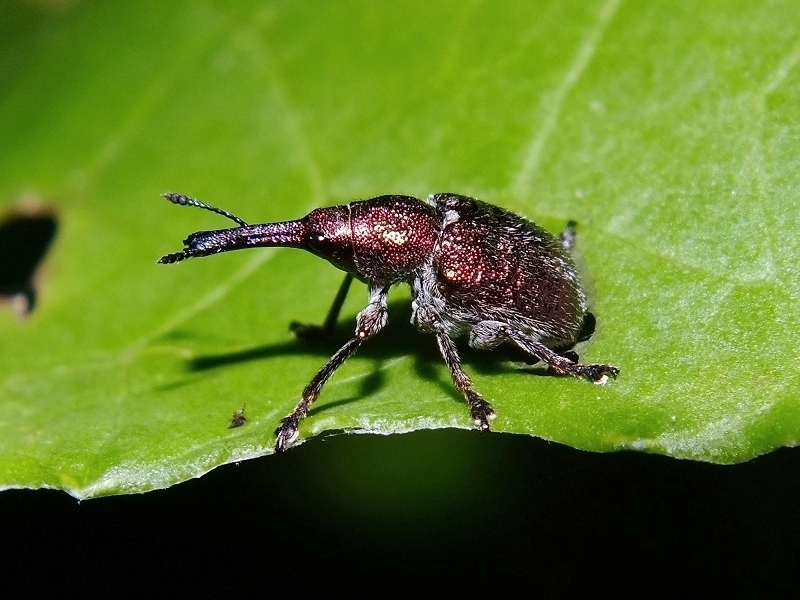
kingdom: Animalia
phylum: Arthropoda
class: Insecta
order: Coleoptera
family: Attelabidae
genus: Rhynchites
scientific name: Rhynchites auratus
